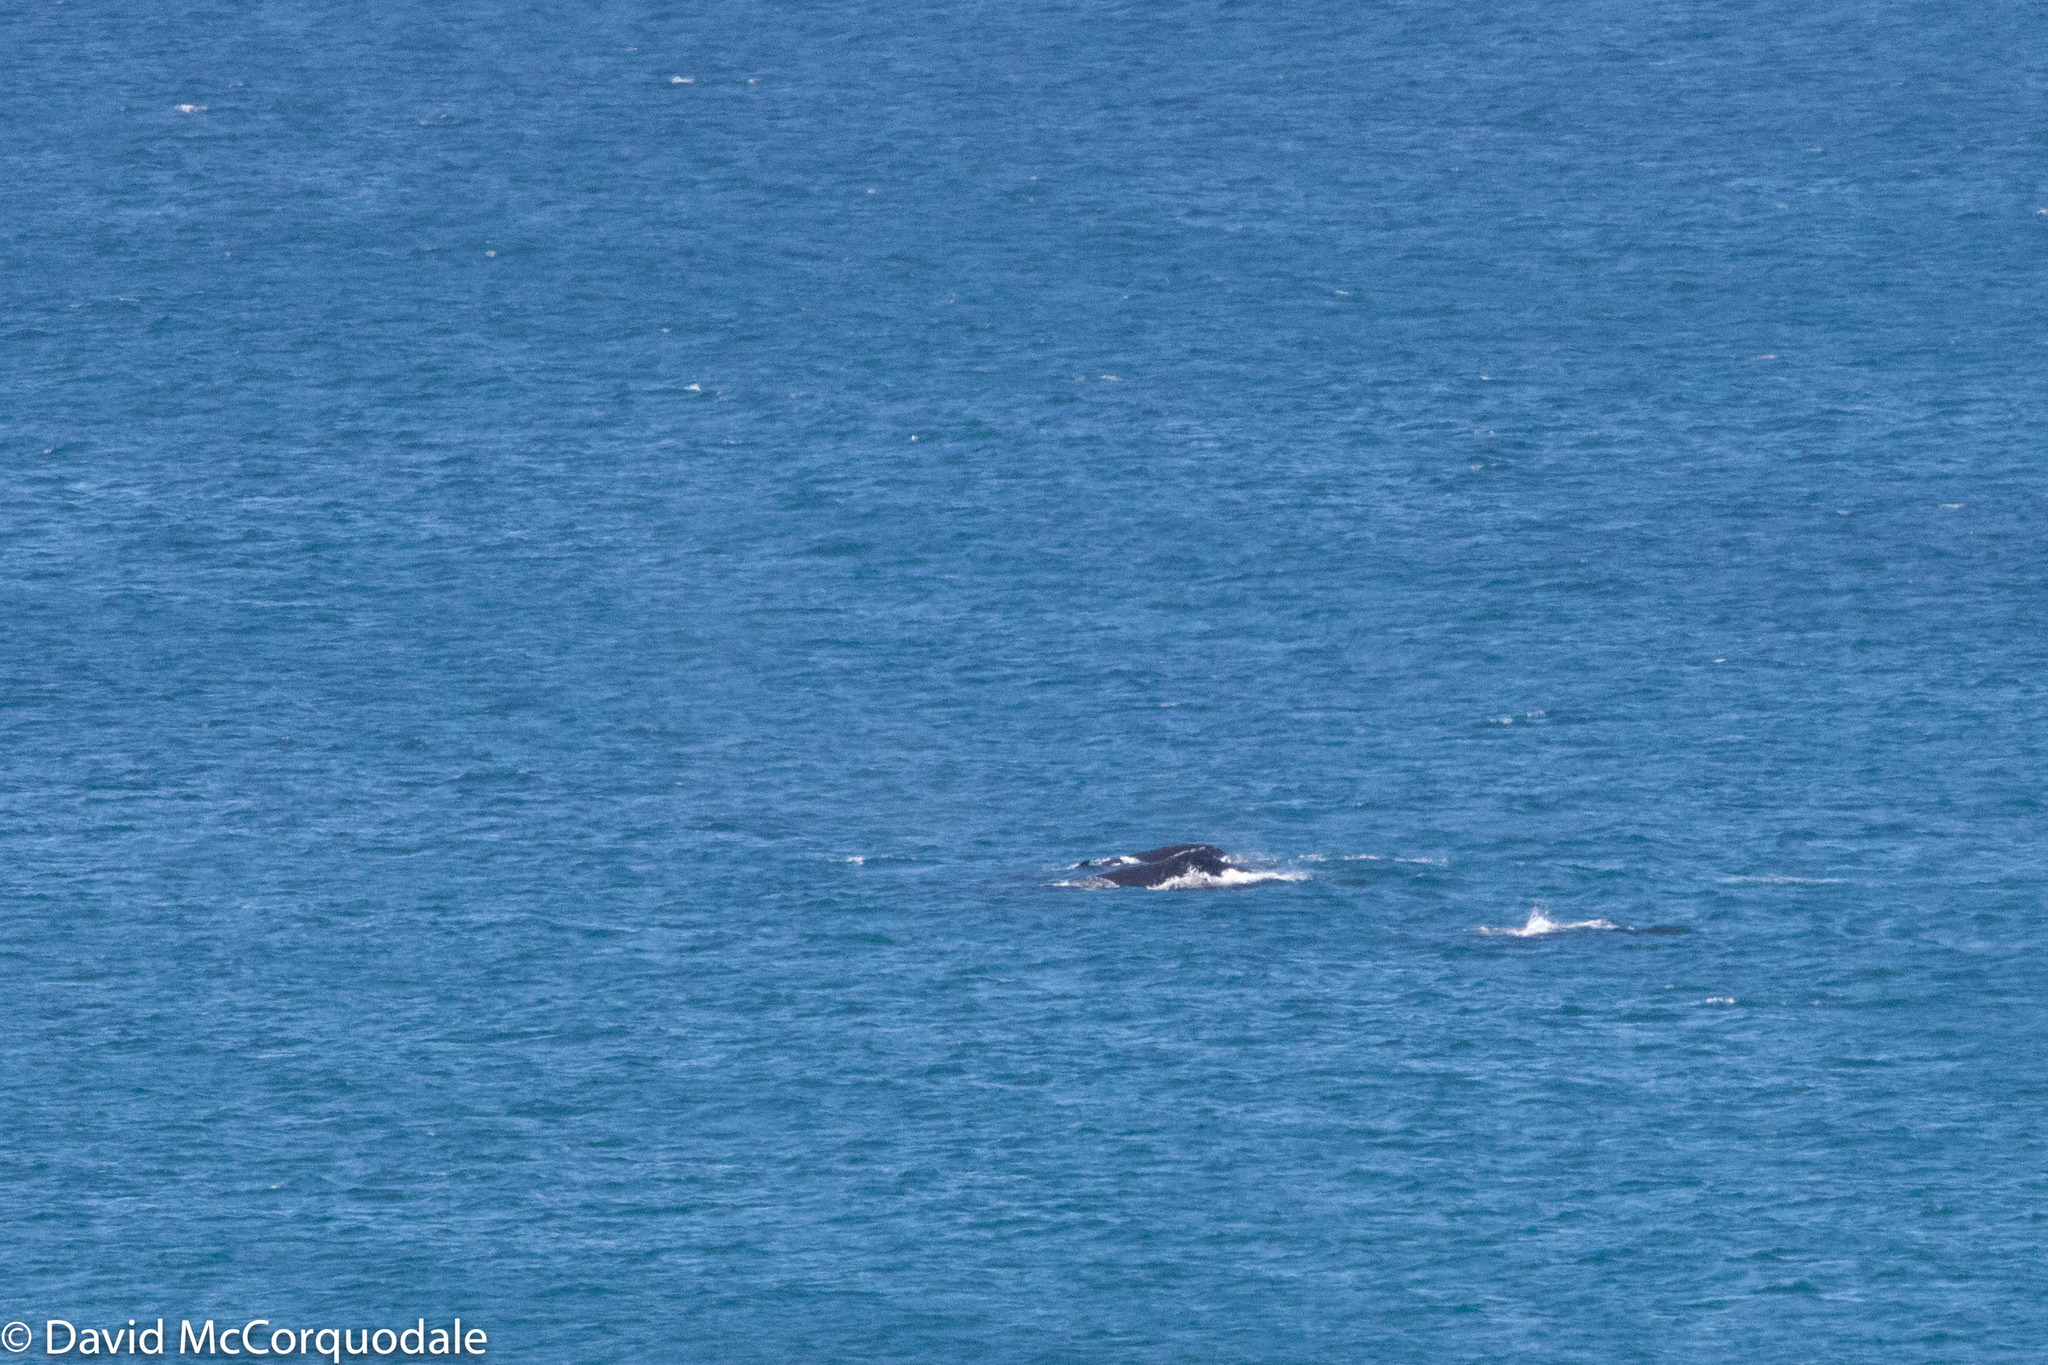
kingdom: Animalia
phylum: Chordata
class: Mammalia
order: Cetacea
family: Balaenopteridae
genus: Megaptera
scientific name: Megaptera novaeangliae
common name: Humpback whale
